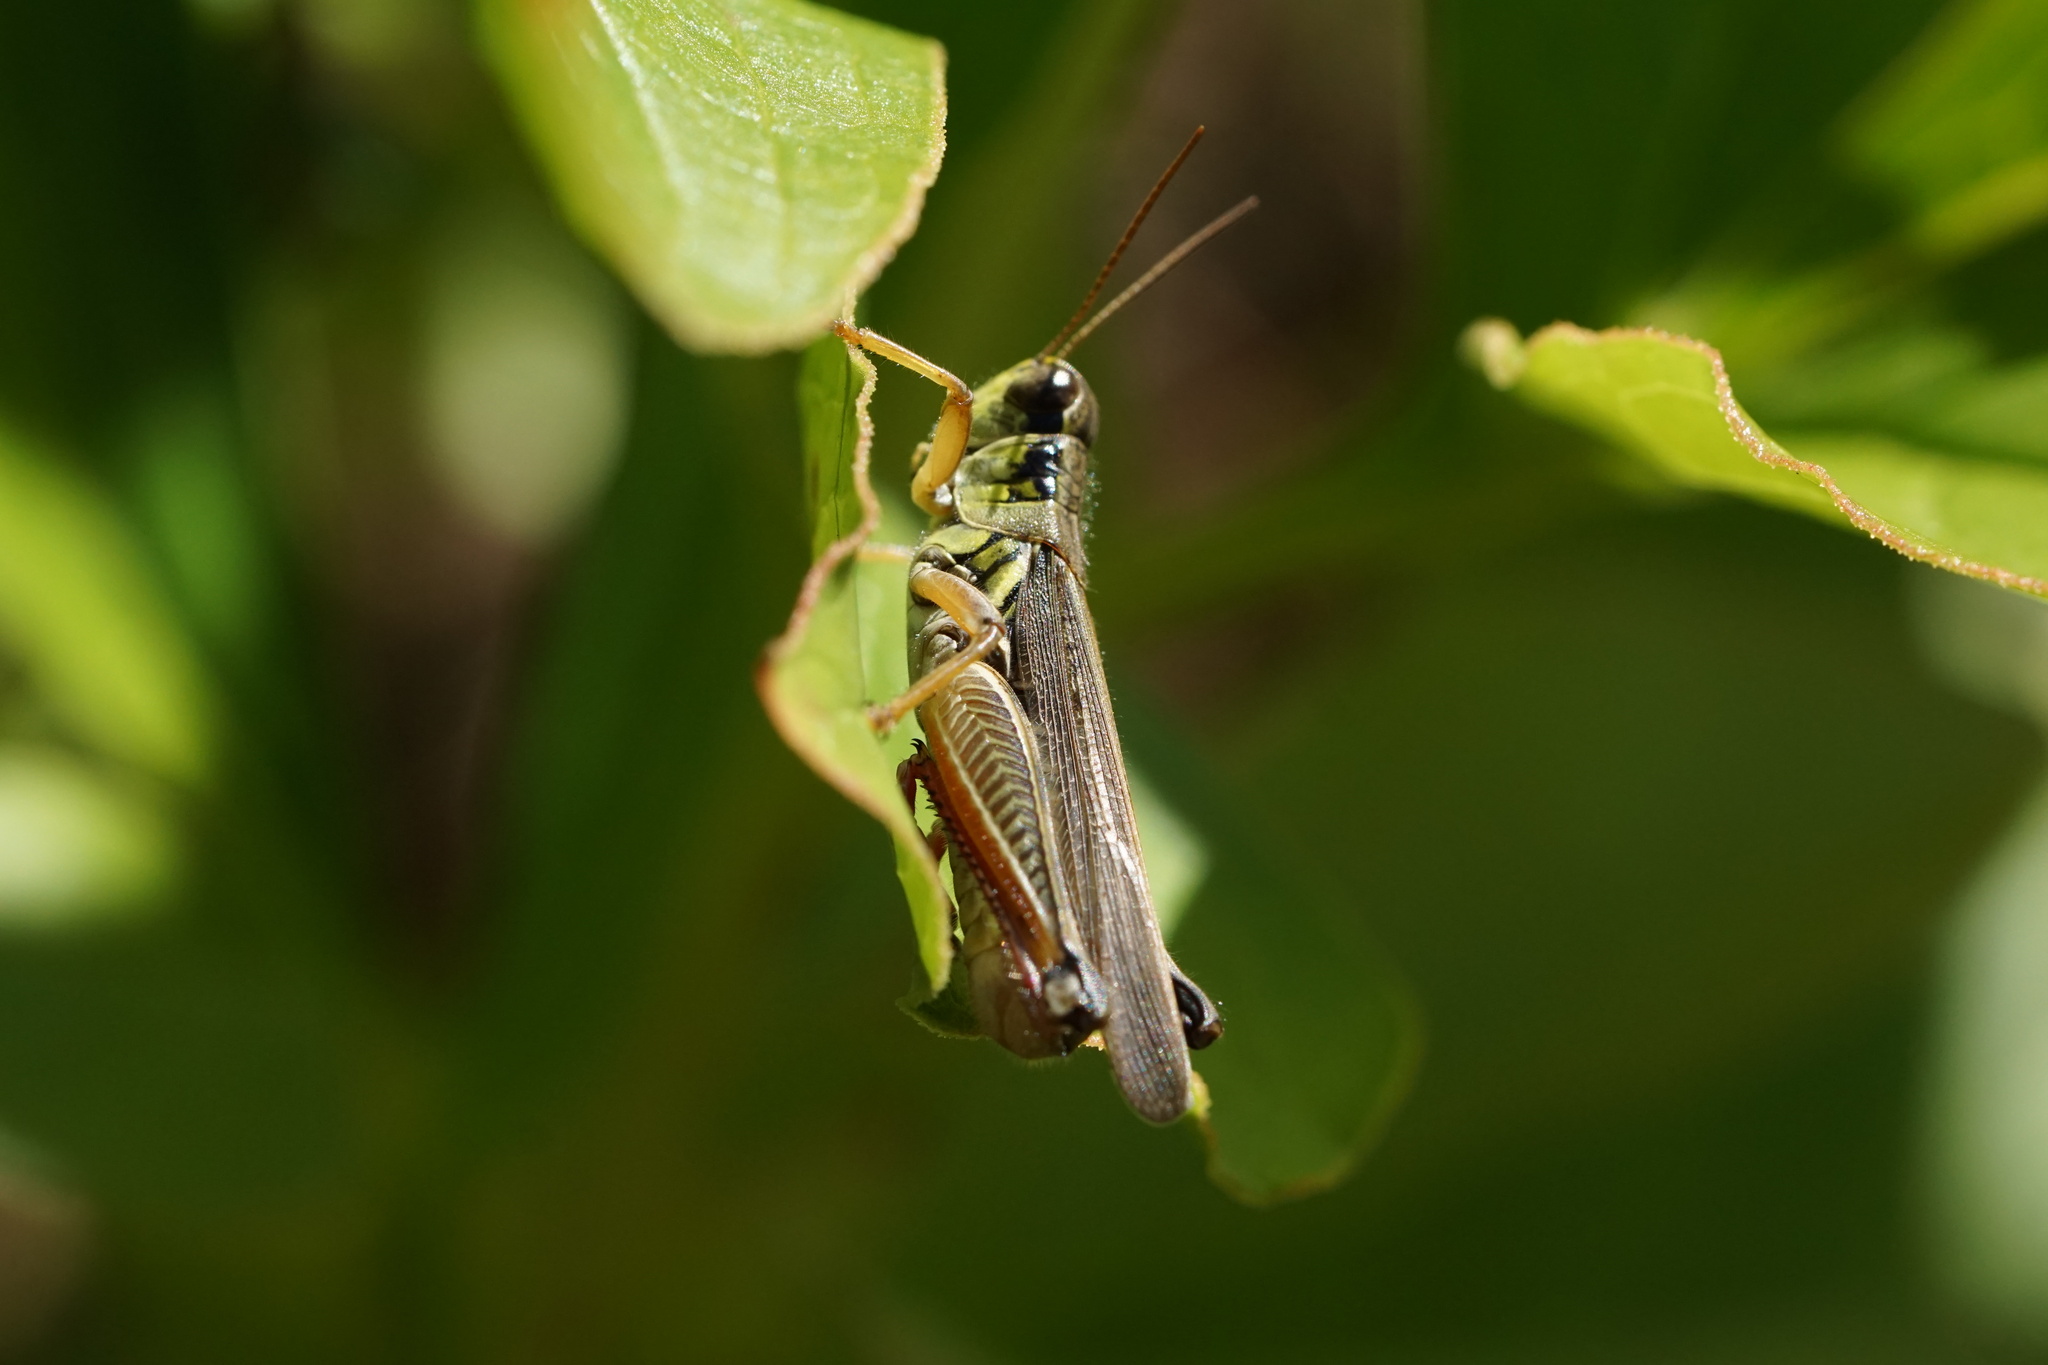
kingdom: Animalia
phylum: Arthropoda
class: Insecta
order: Orthoptera
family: Acrididae
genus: Melanoplus
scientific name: Melanoplus femurrubrum
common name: Red-legged grasshopper
